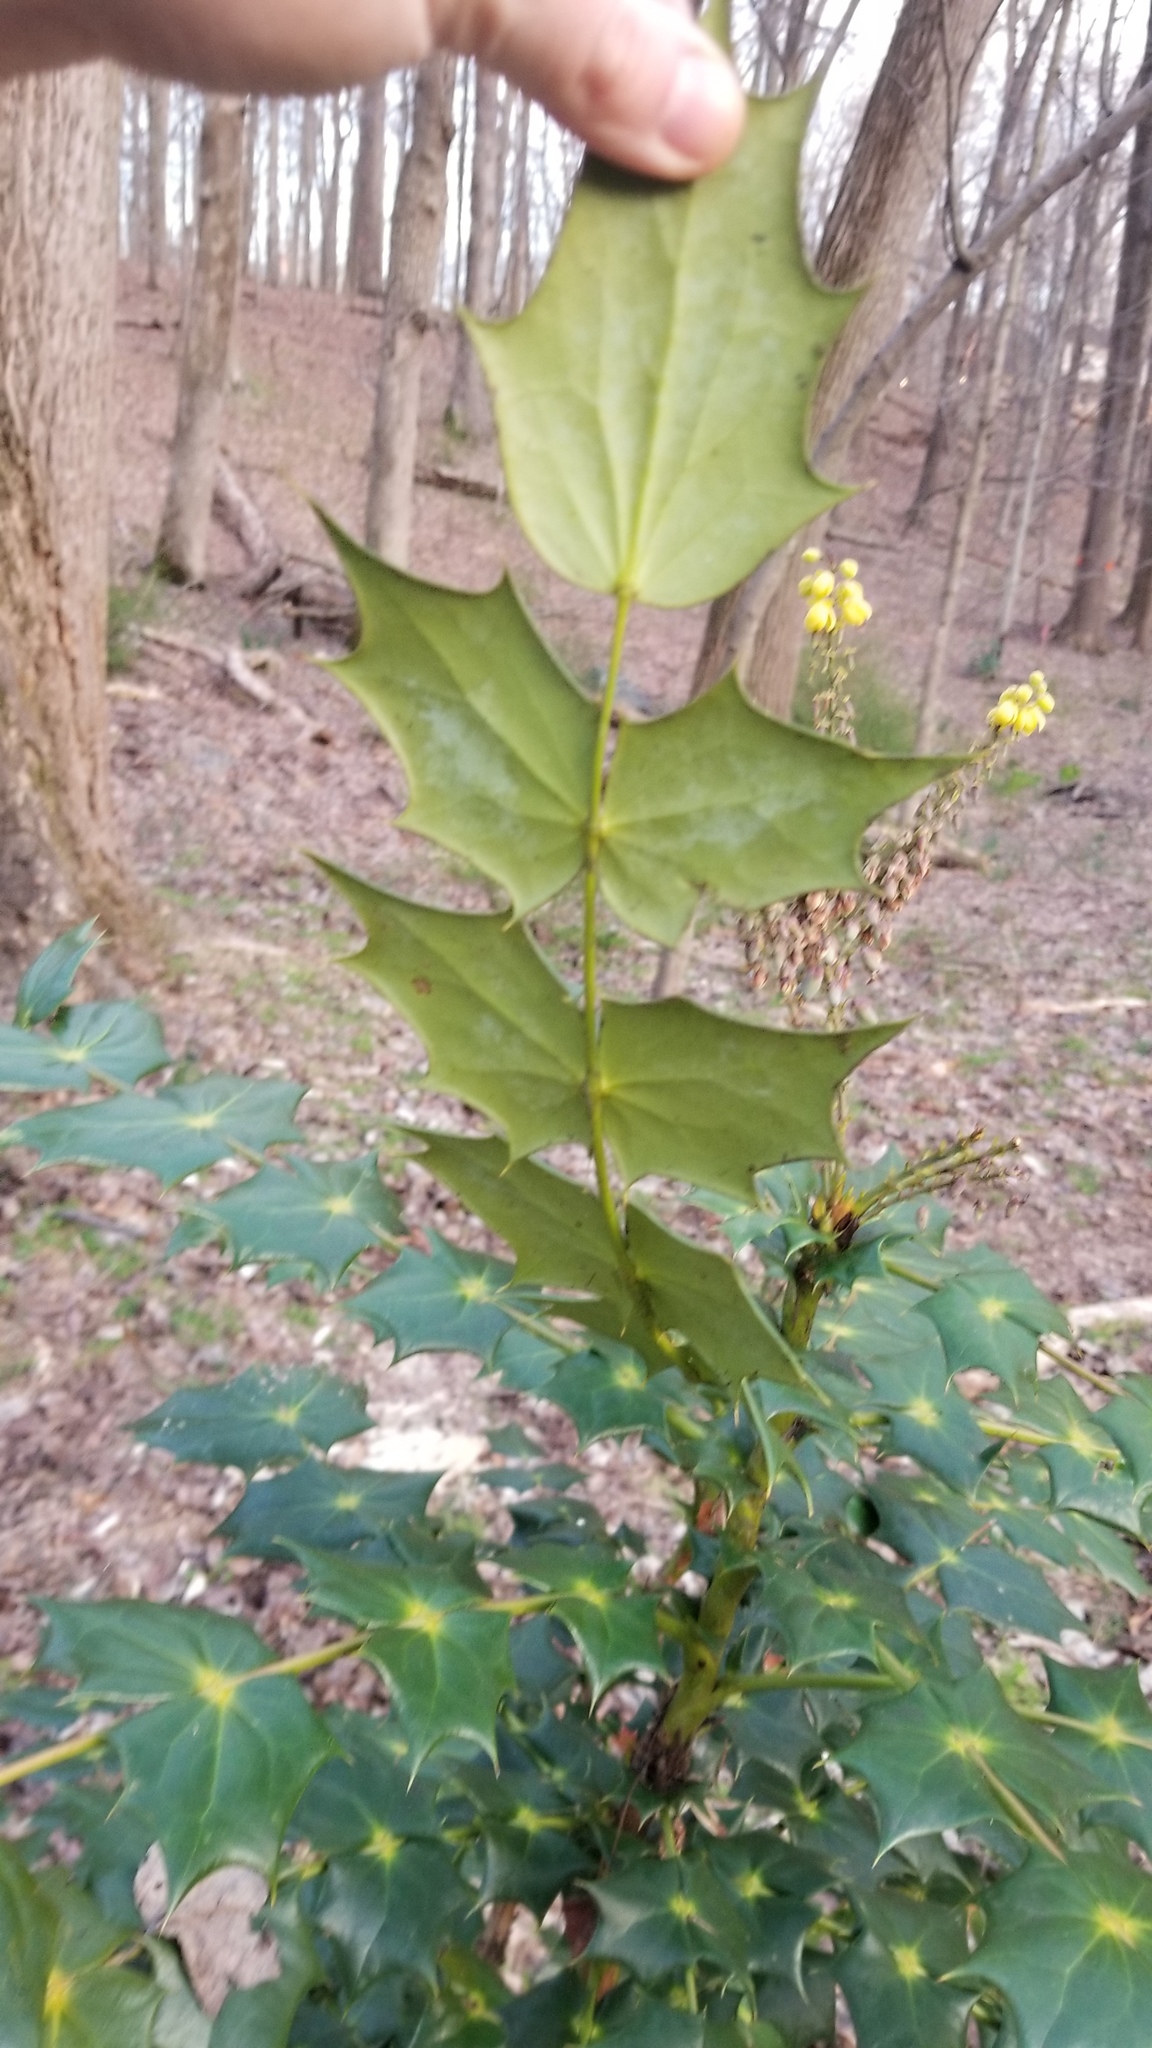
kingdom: Plantae
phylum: Tracheophyta
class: Magnoliopsida
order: Ranunculales
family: Berberidaceae
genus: Mahonia
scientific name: Mahonia bealei
